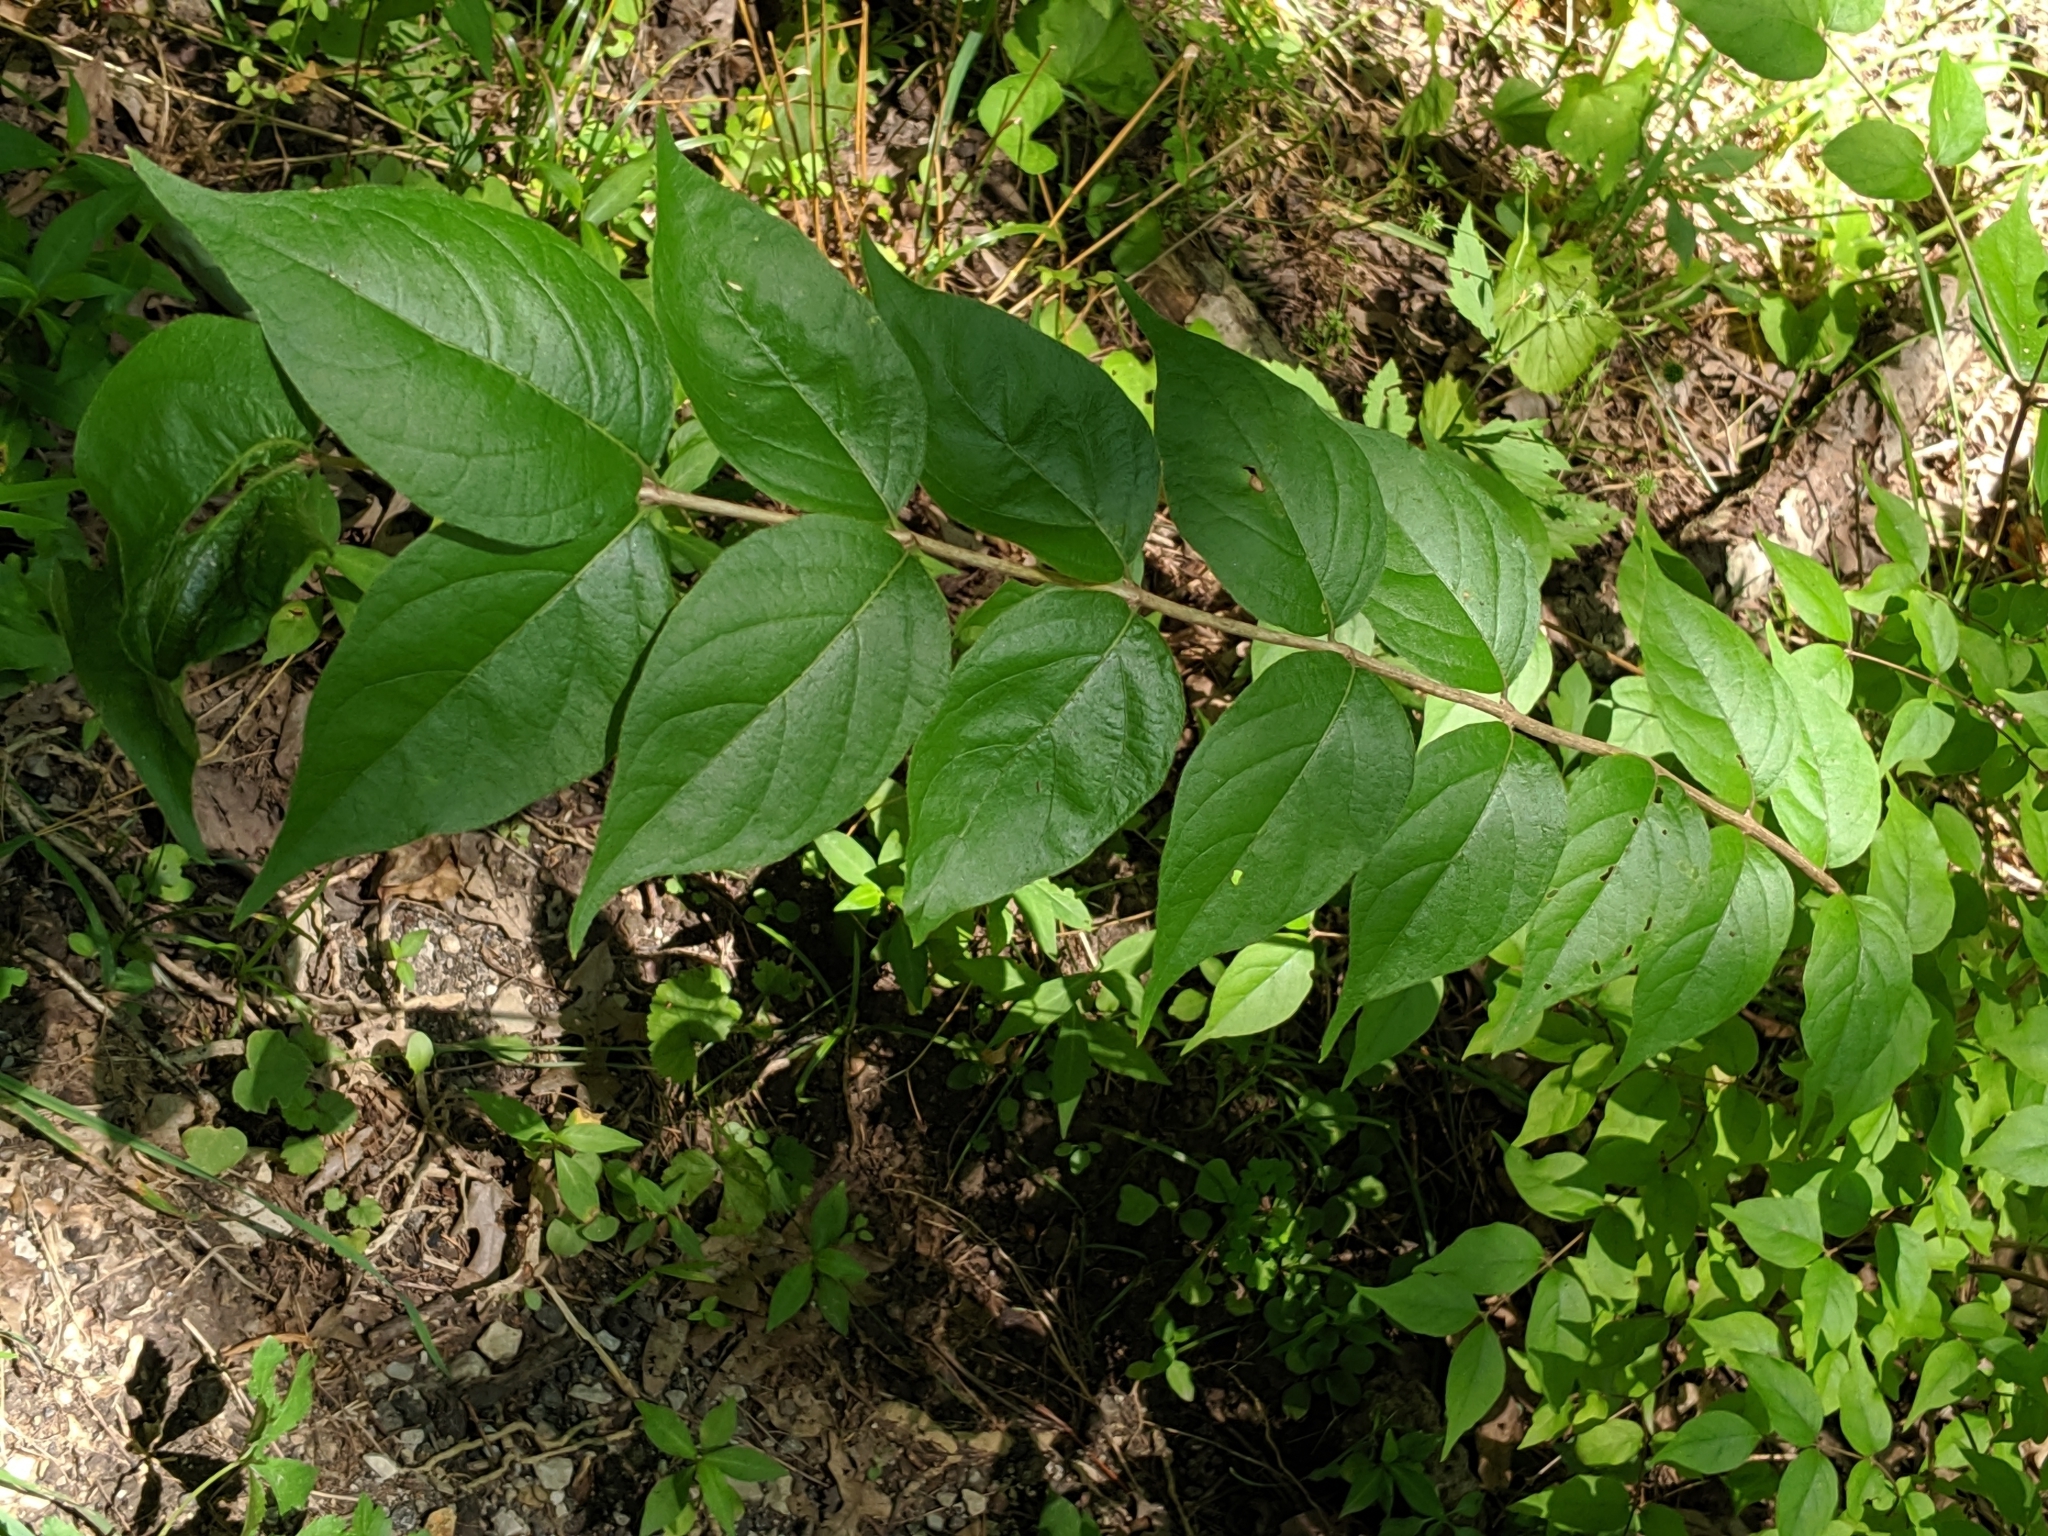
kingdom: Plantae
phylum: Tracheophyta
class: Magnoliopsida
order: Dipsacales
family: Caprifoliaceae
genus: Lonicera
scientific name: Lonicera maackii
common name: Amur honeysuckle
